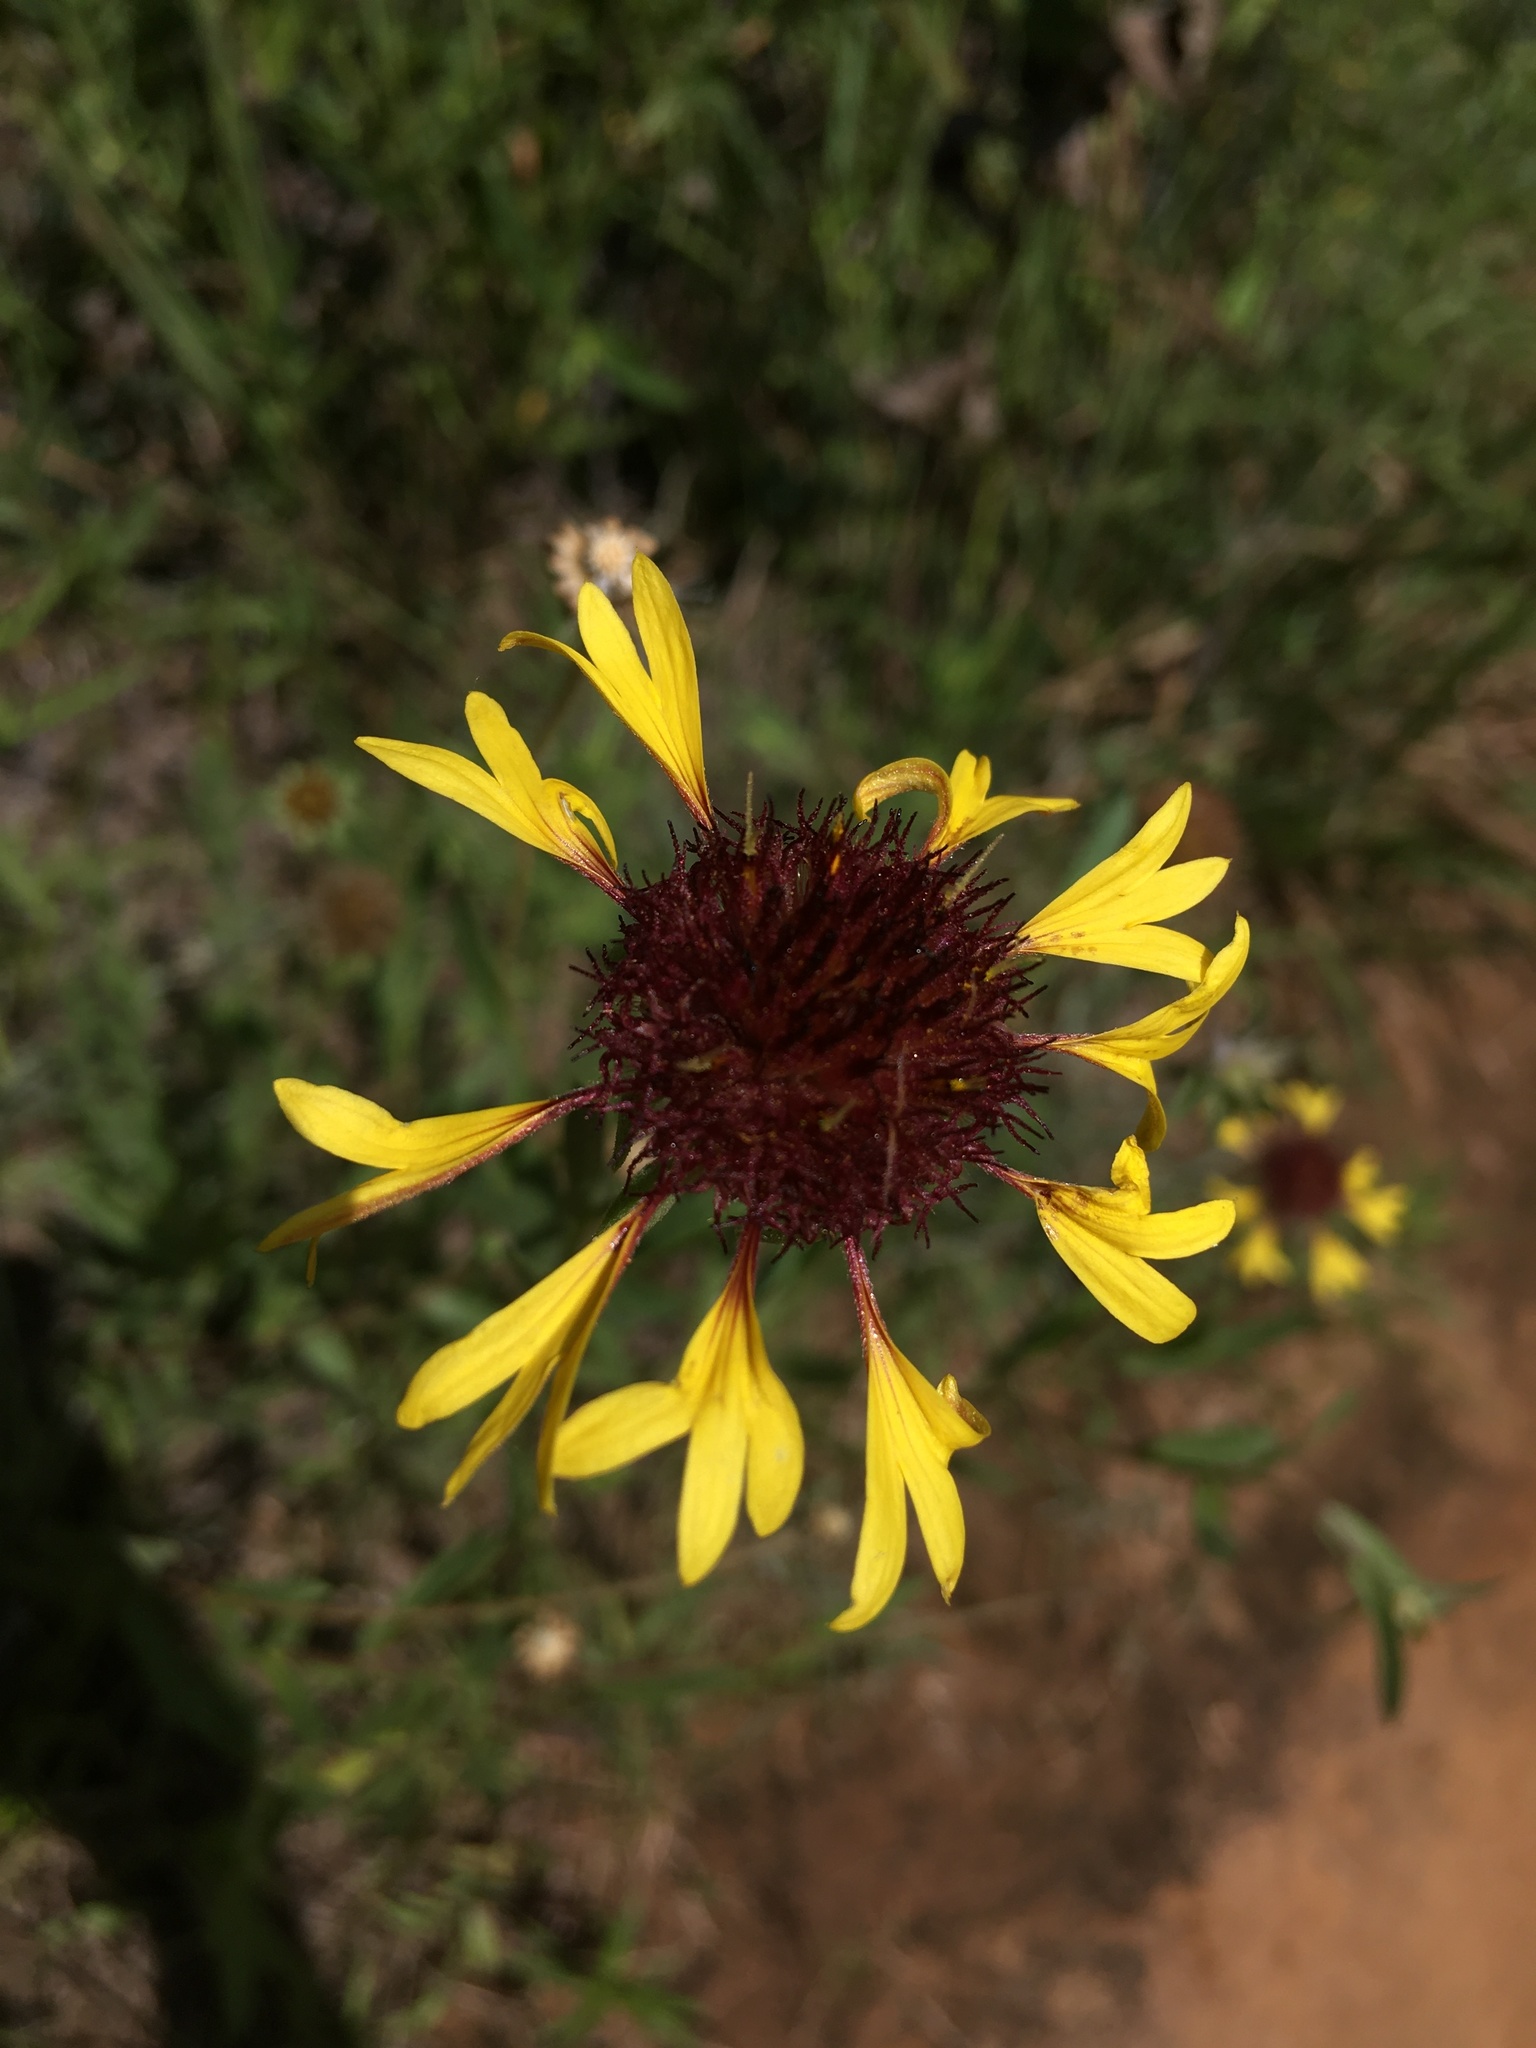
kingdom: Plantae
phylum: Tracheophyta
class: Magnoliopsida
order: Asterales
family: Asteraceae
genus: Gaillardia
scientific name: Gaillardia aestivalis
